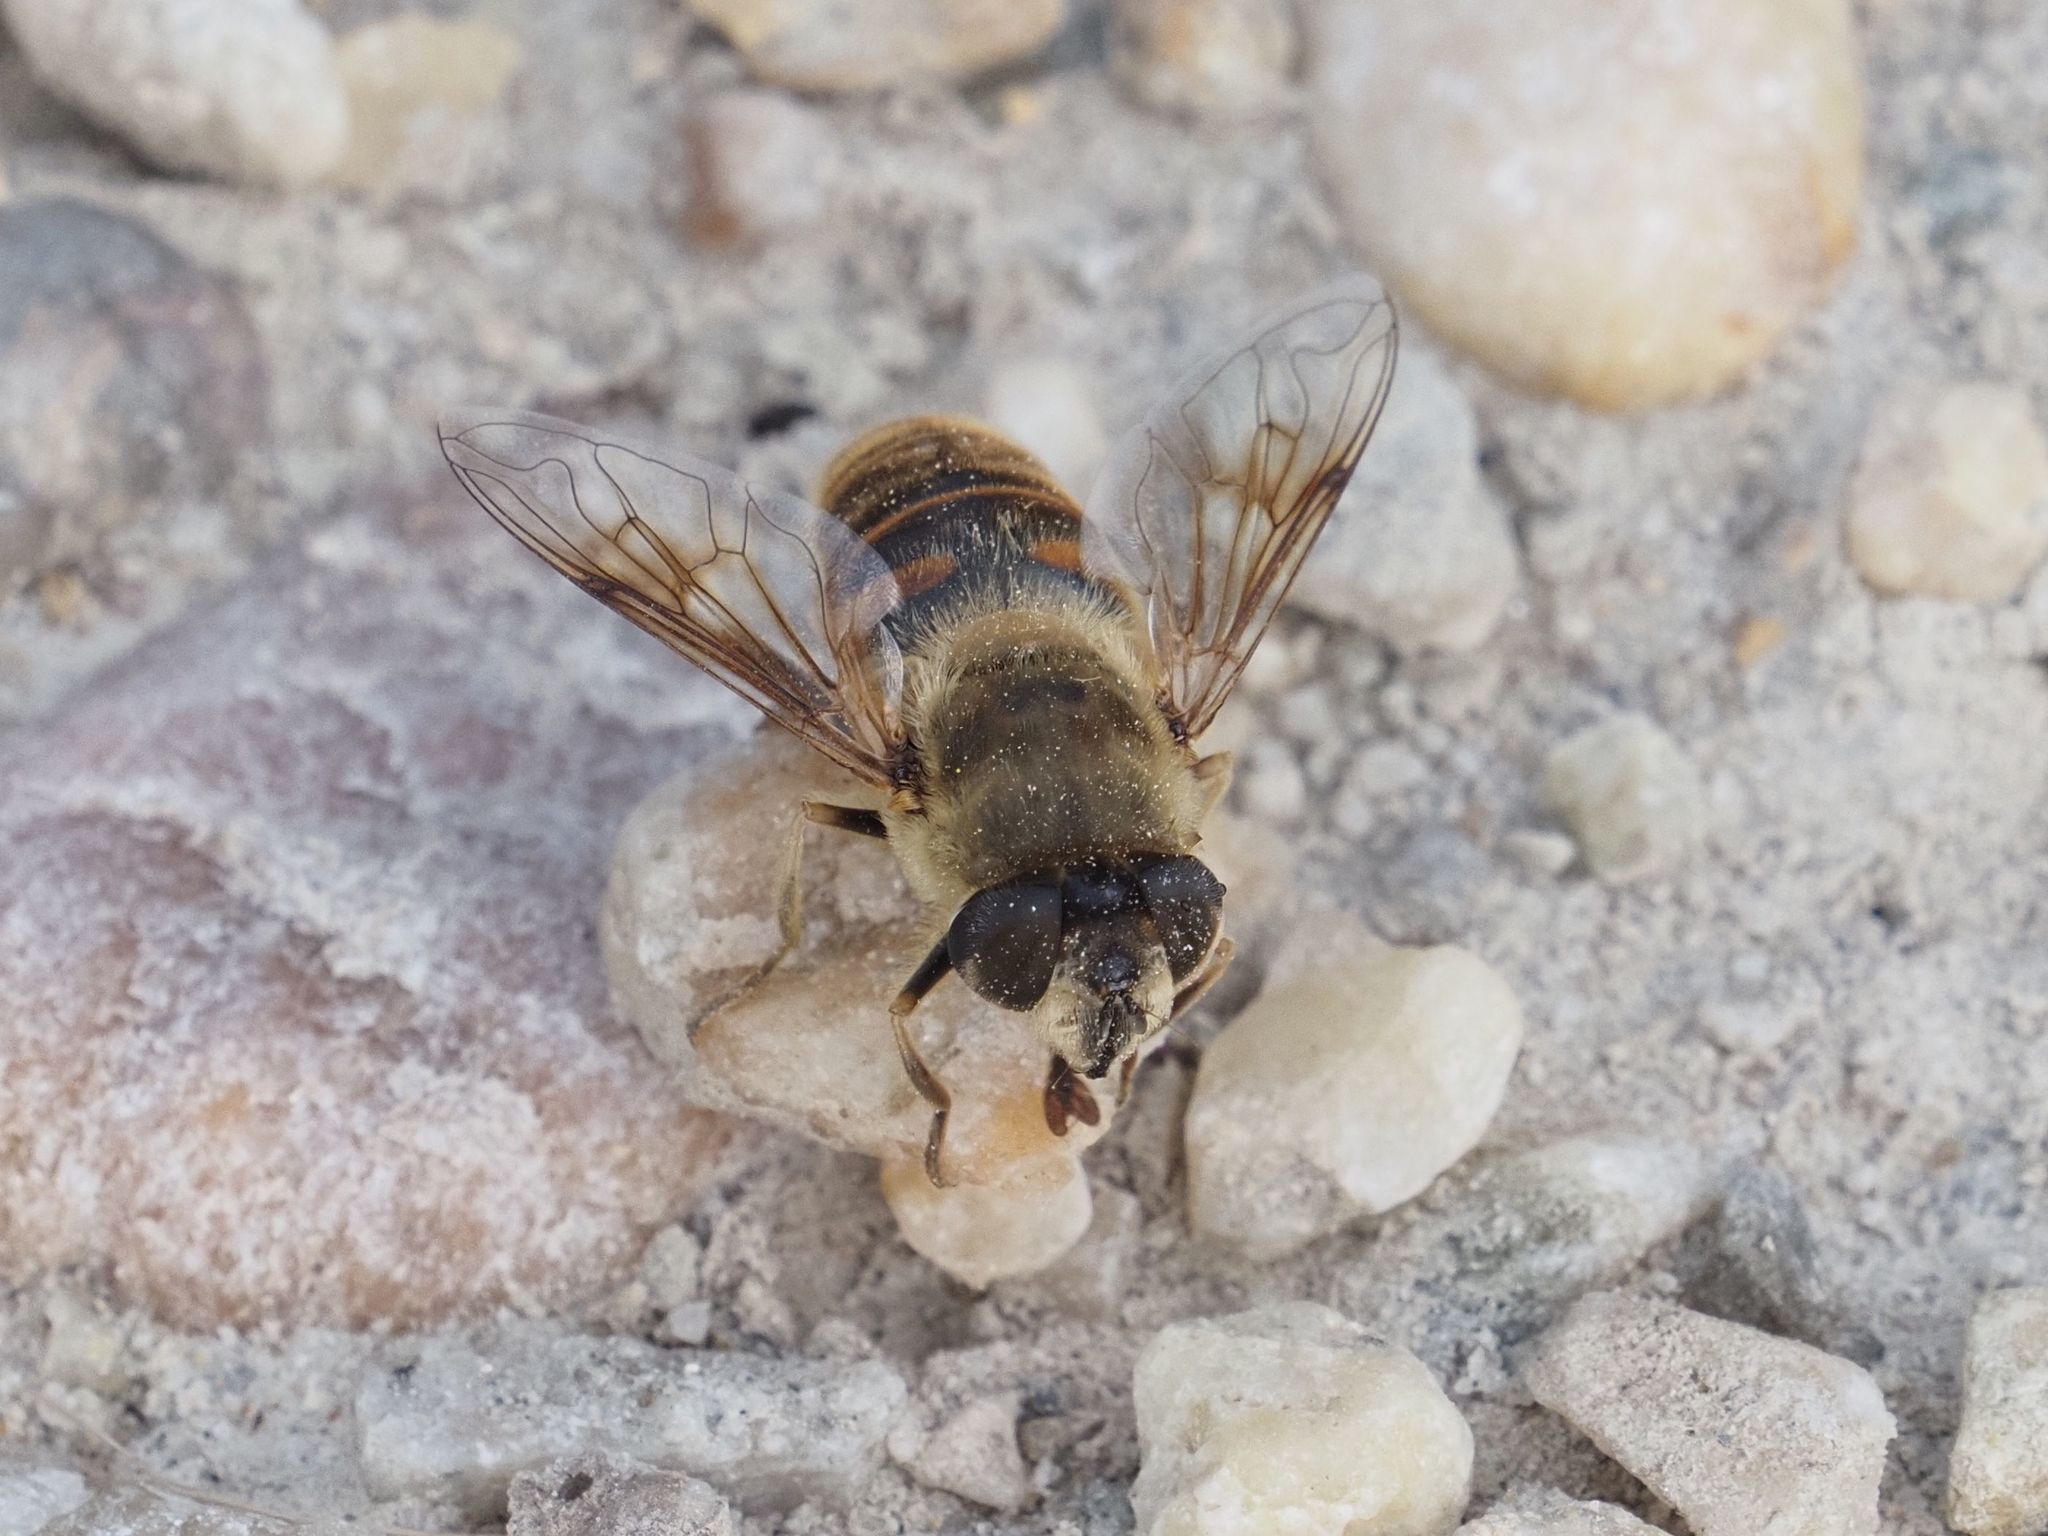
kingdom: Animalia
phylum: Arthropoda
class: Insecta
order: Diptera
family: Syrphidae
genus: Eristalis
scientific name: Eristalis tenax
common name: Drone fly
